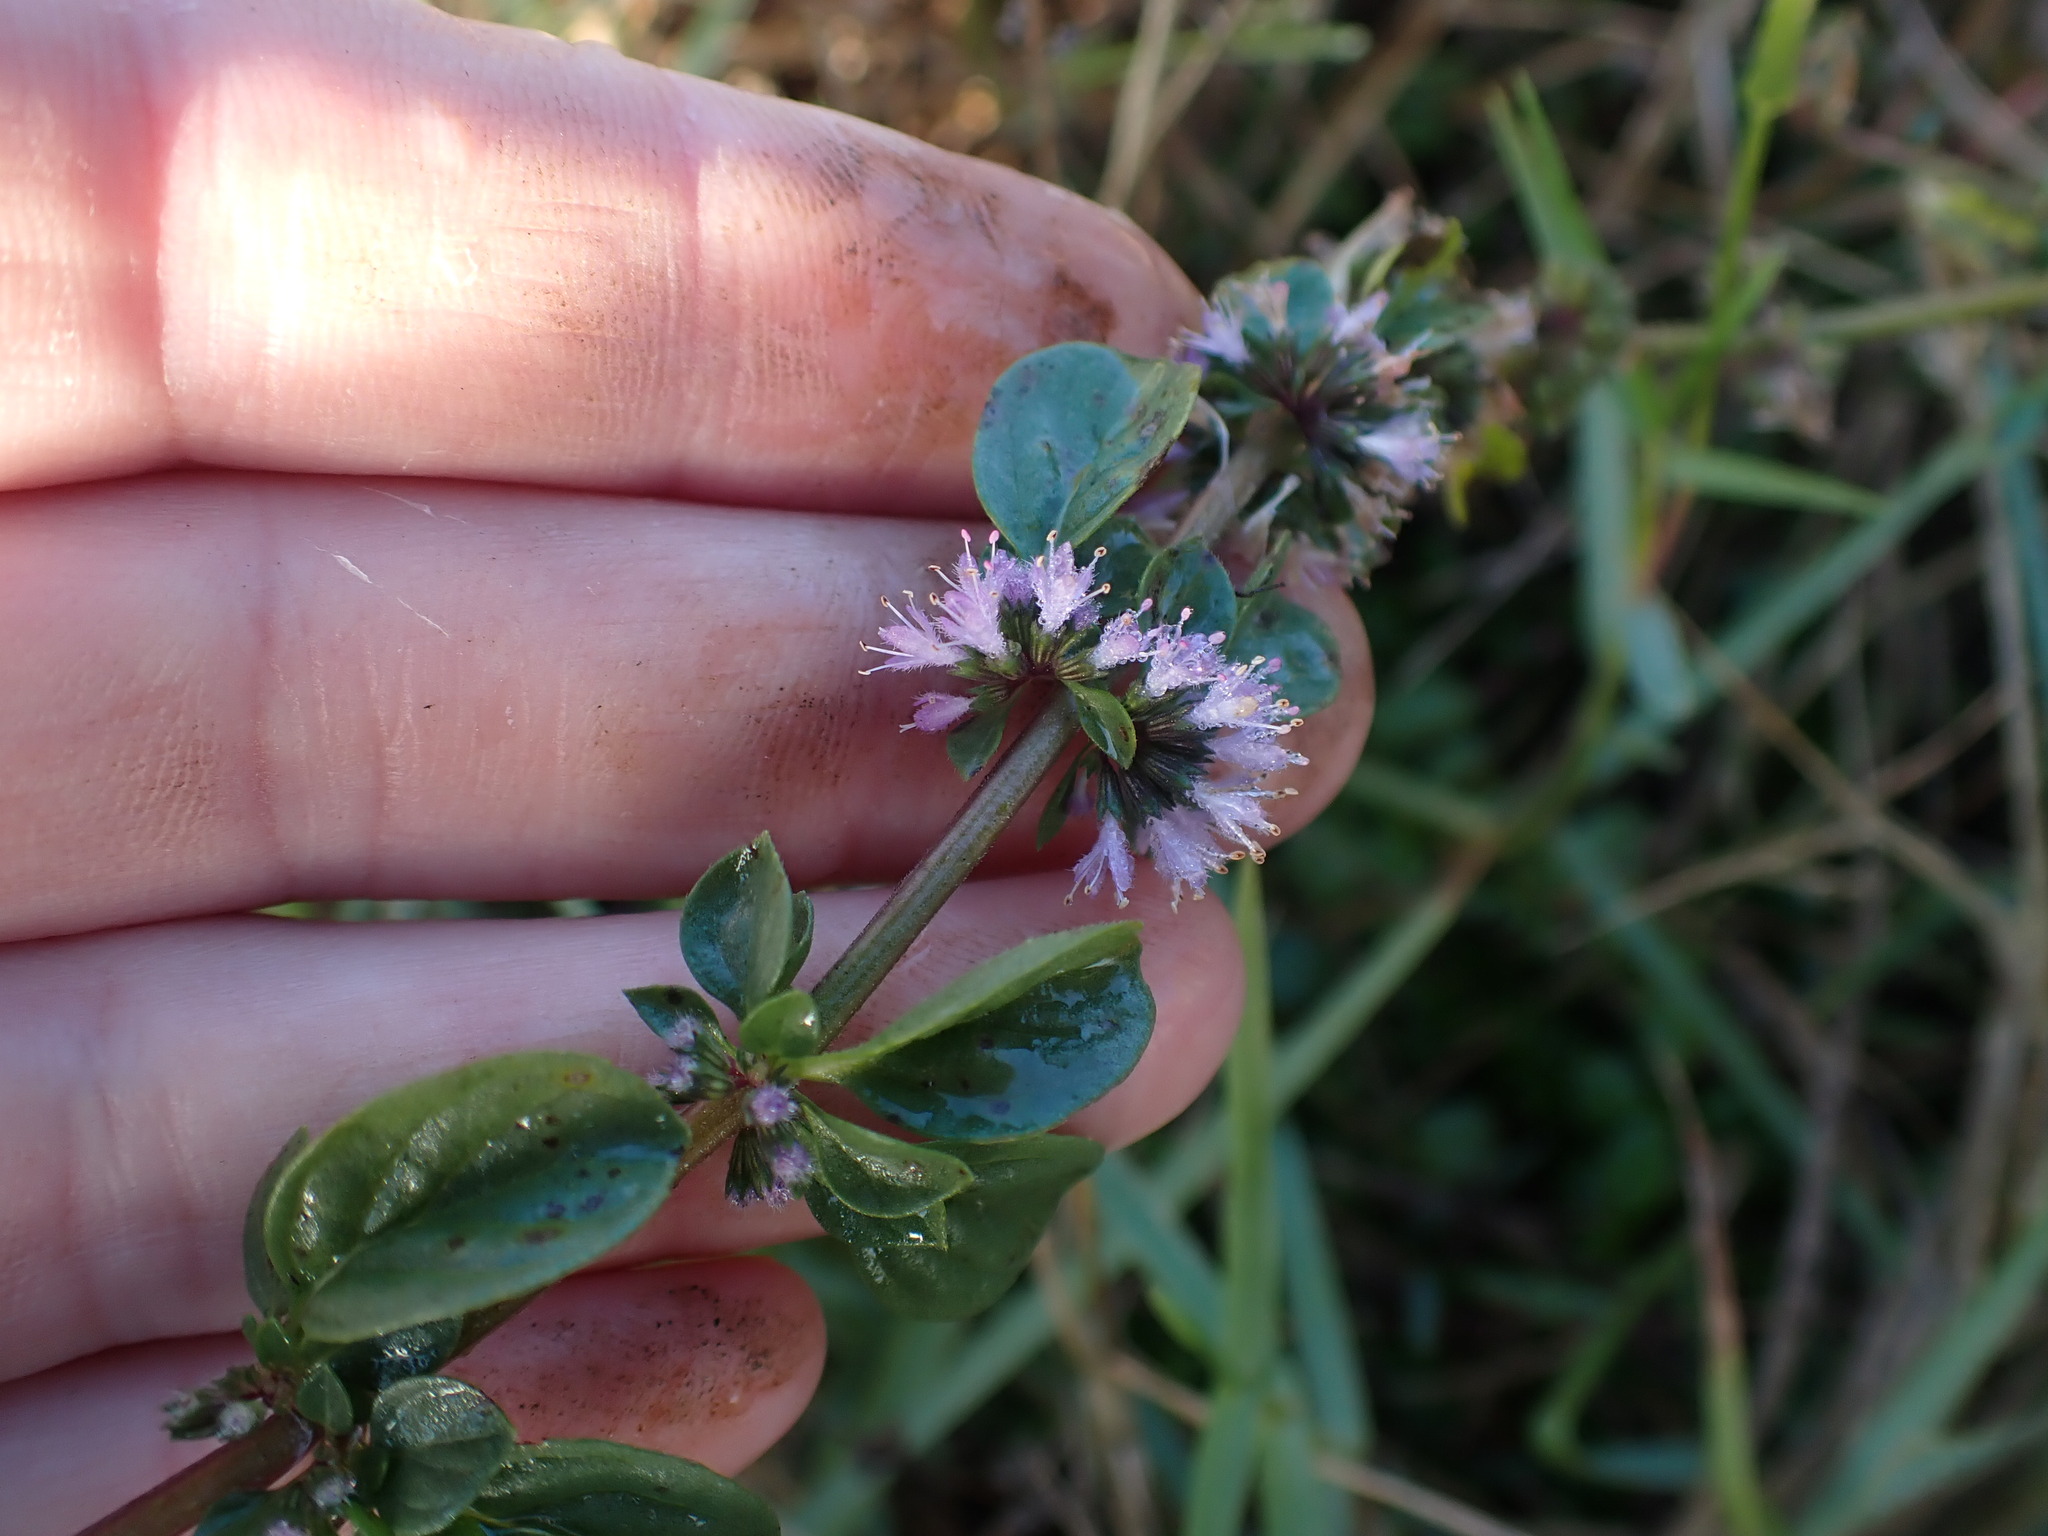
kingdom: Plantae
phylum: Tracheophyta
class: Magnoliopsida
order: Lamiales
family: Lamiaceae
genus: Mentha
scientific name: Mentha pulegium
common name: Pennyroyal
